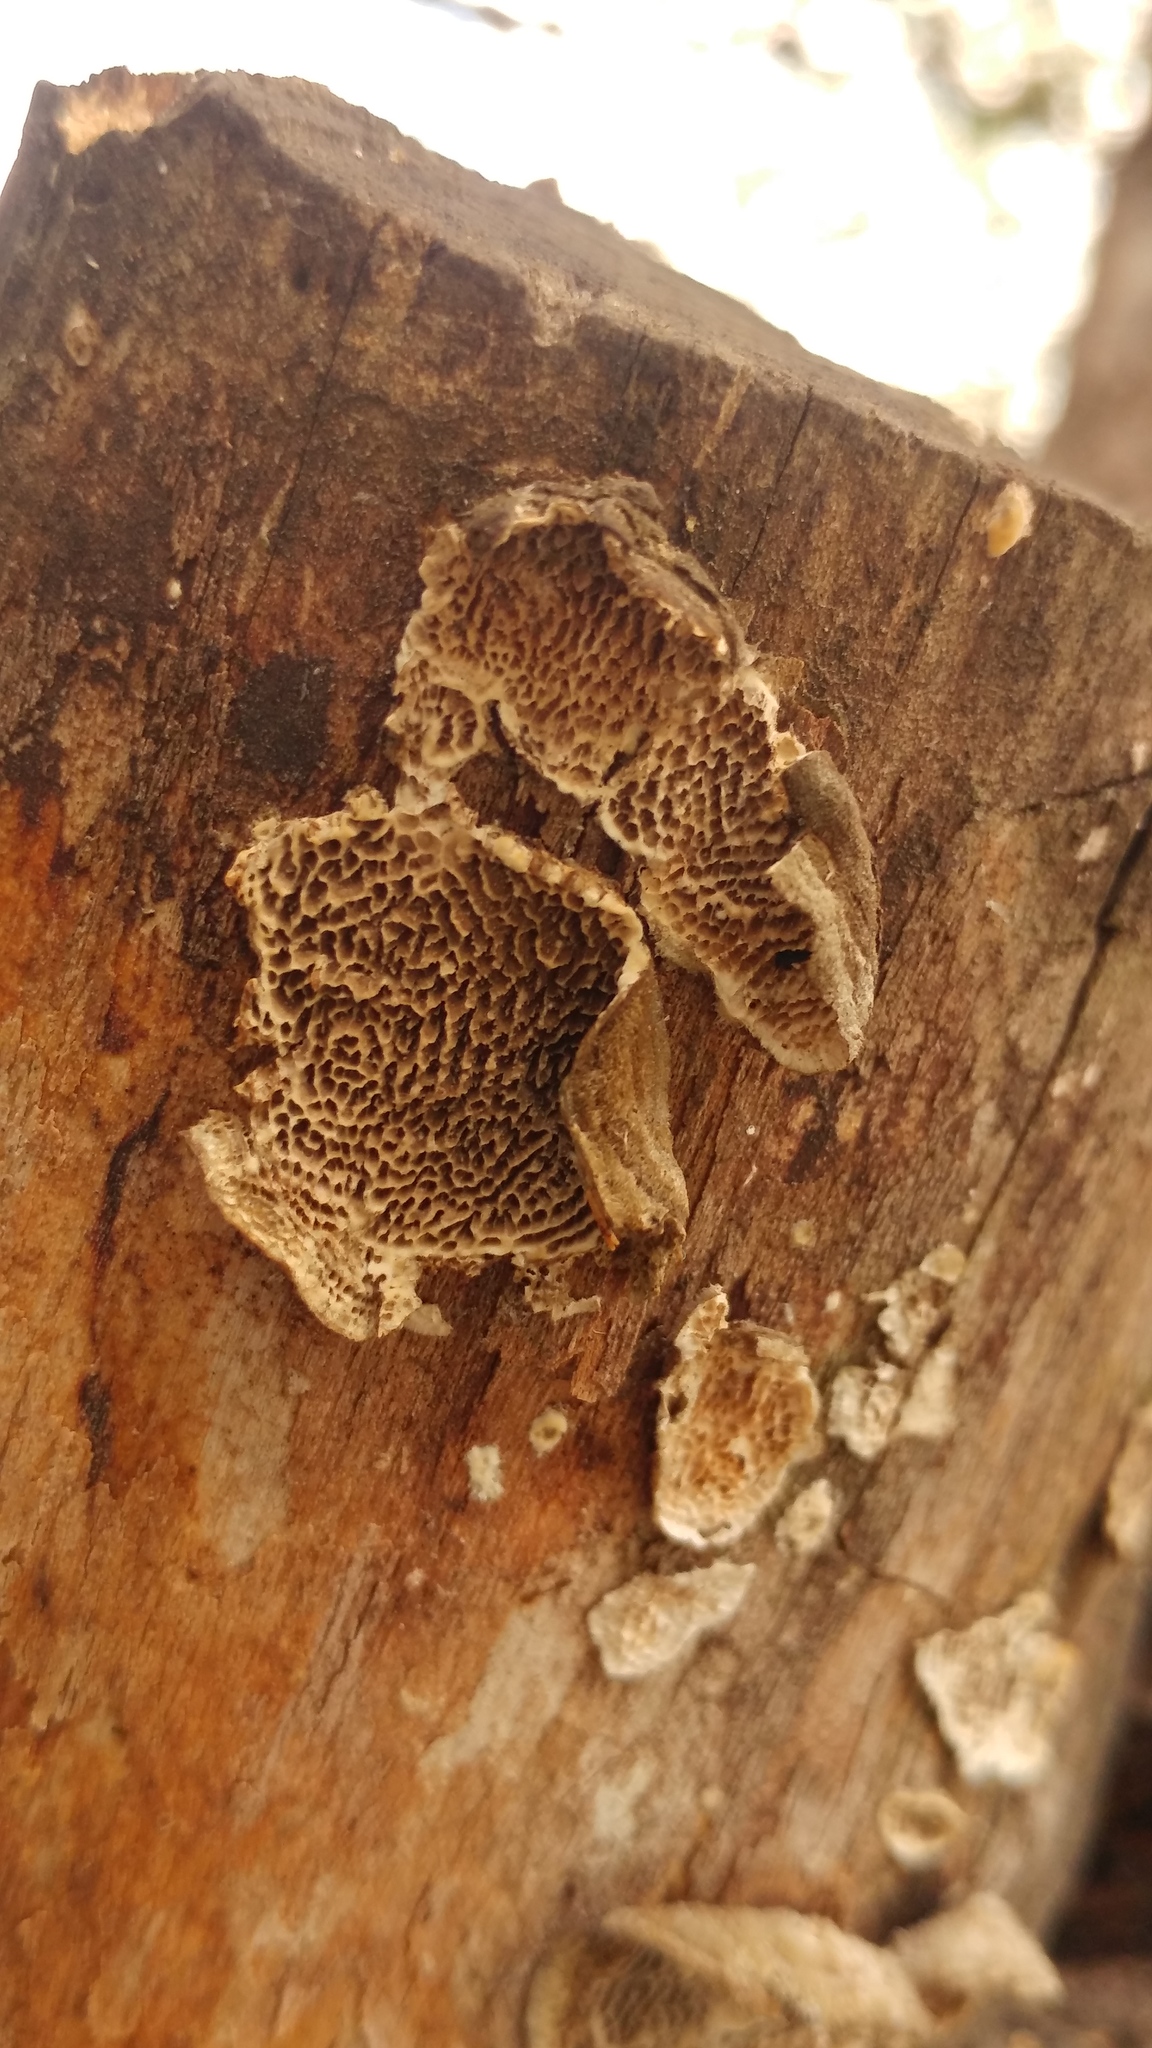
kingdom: Fungi
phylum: Basidiomycota
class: Agaricomycetes
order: Polyporales
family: Polyporaceae
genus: Trametes
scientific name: Trametes villosa
